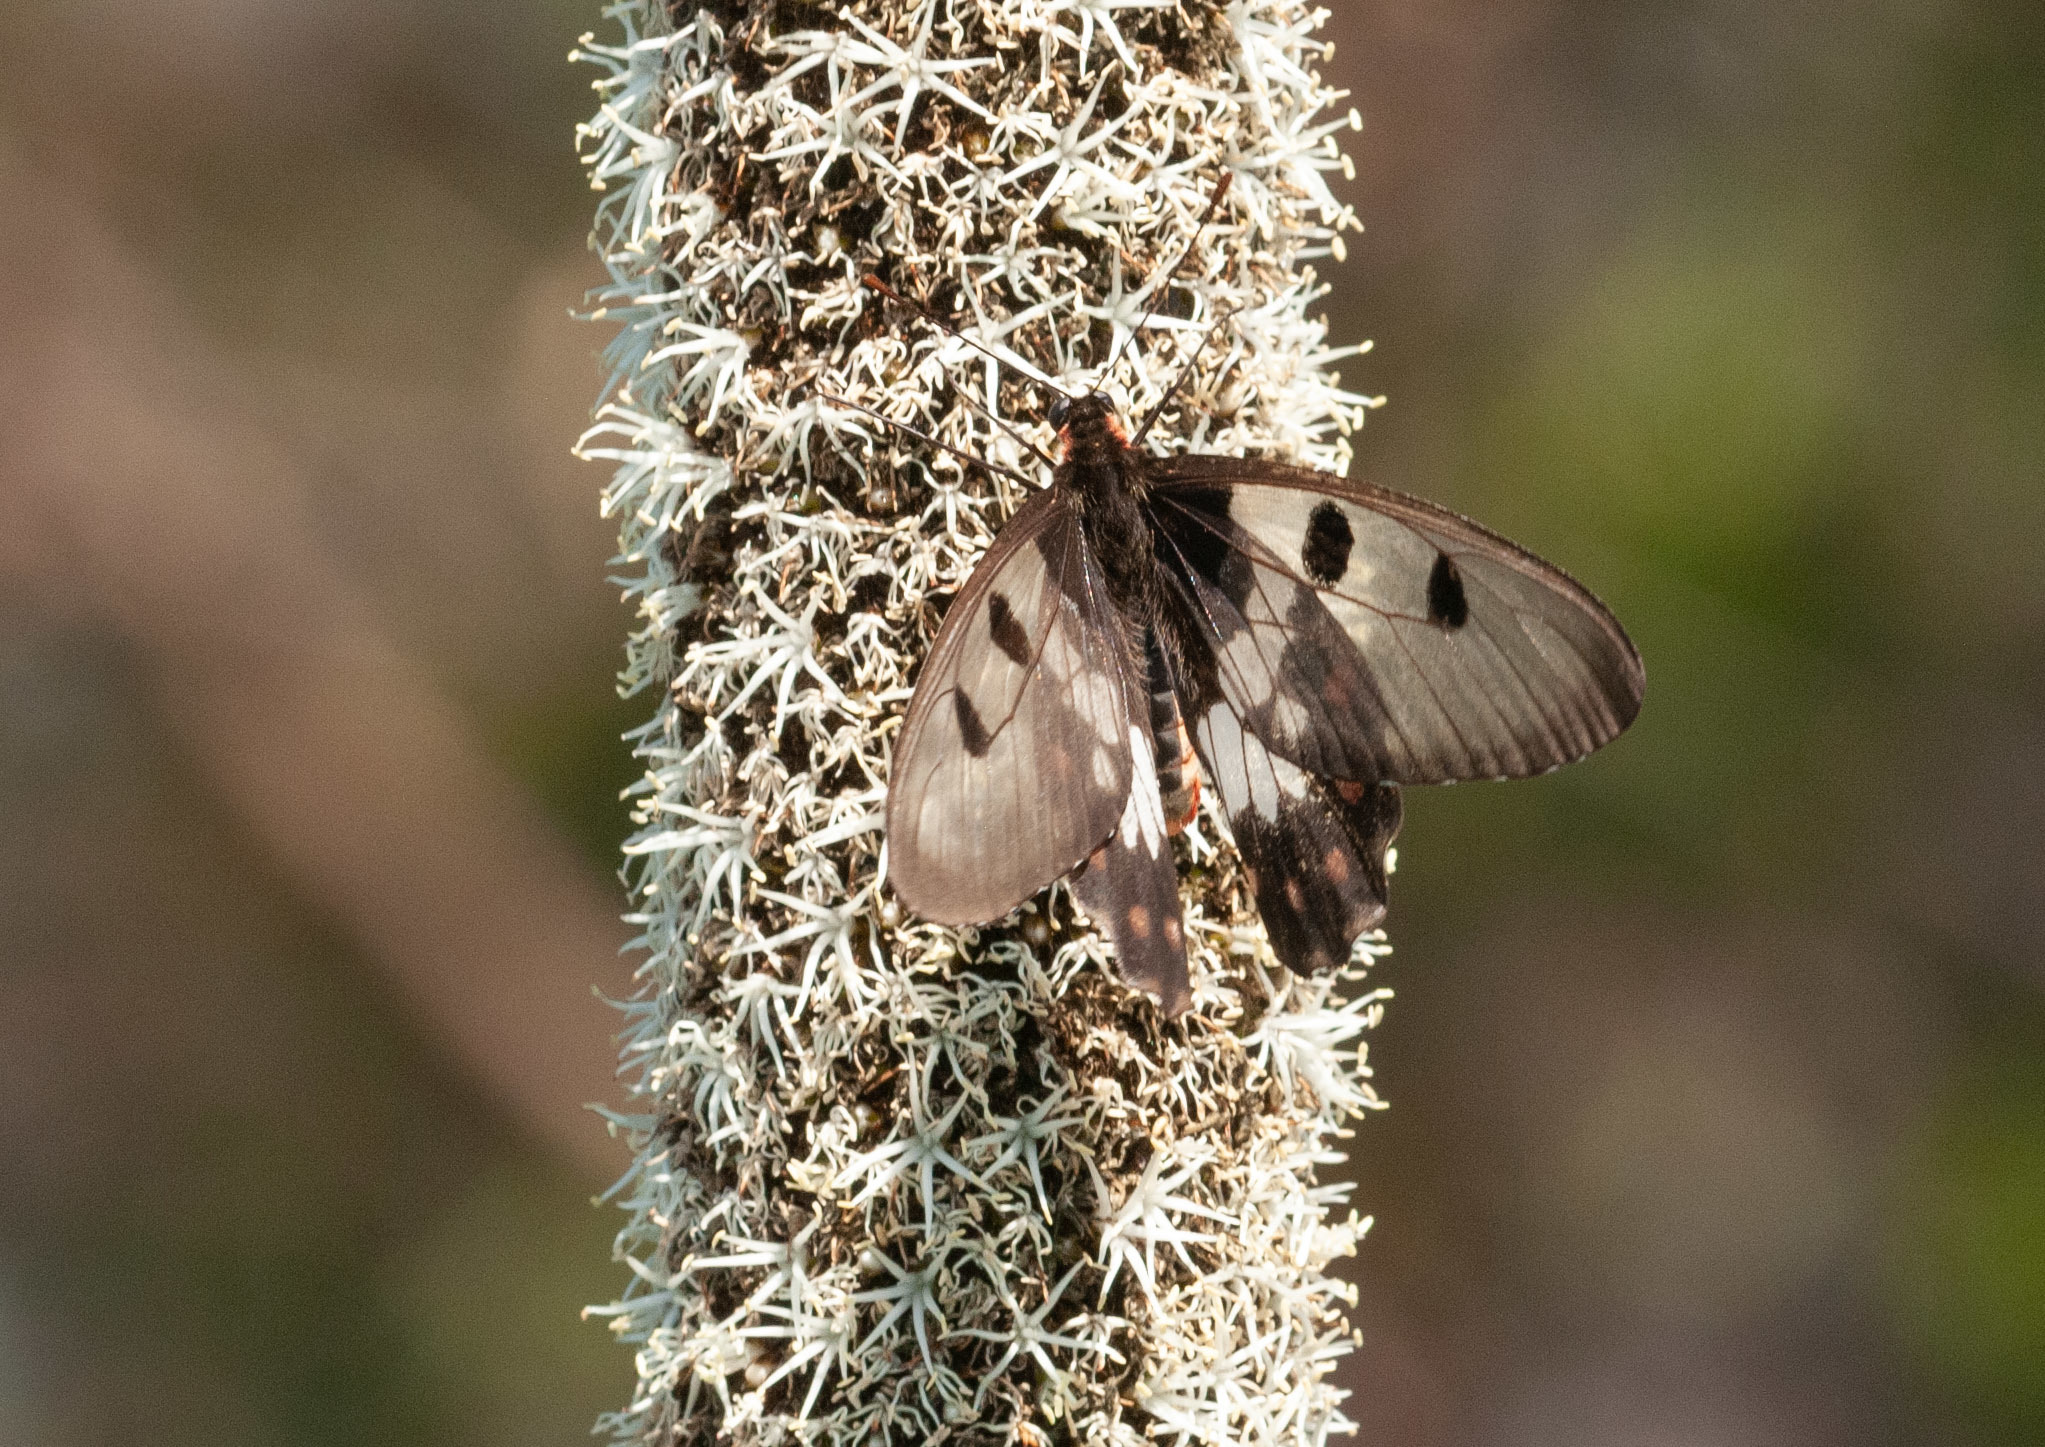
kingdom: Animalia
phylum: Arthropoda
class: Insecta
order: Lepidoptera
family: Papilionidae
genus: Cressida
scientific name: Cressida cressida
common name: Big greasy
